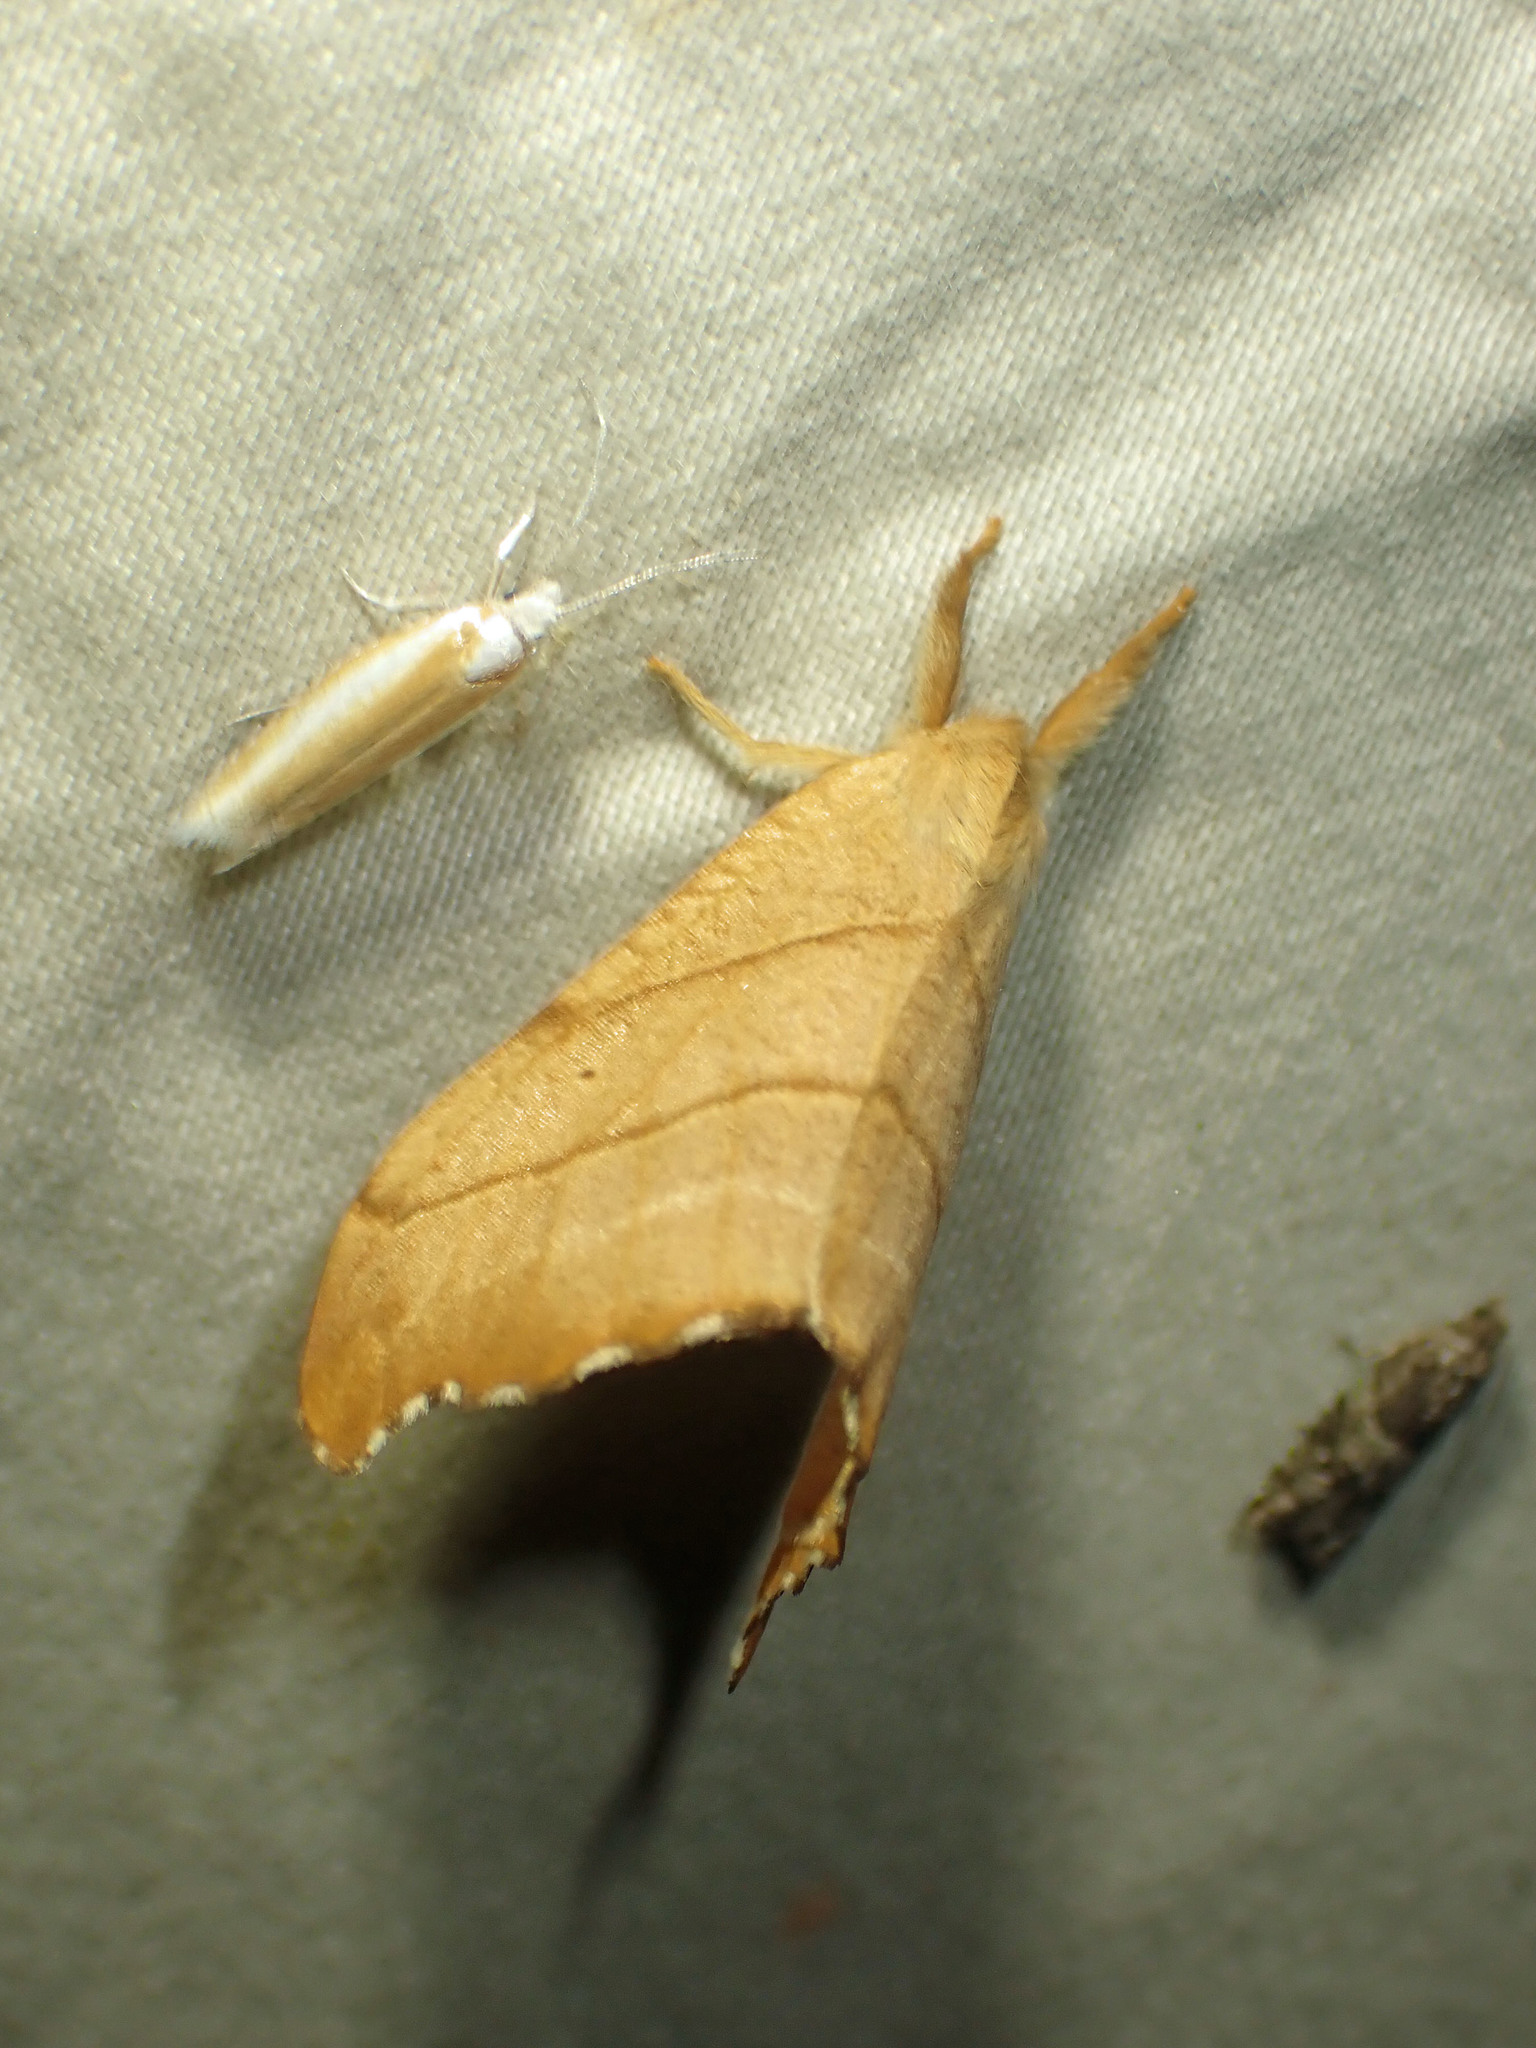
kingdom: Animalia
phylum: Arthropoda
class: Insecta
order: Lepidoptera
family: Drepanidae
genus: Falcaria
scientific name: Falcaria bilineata
